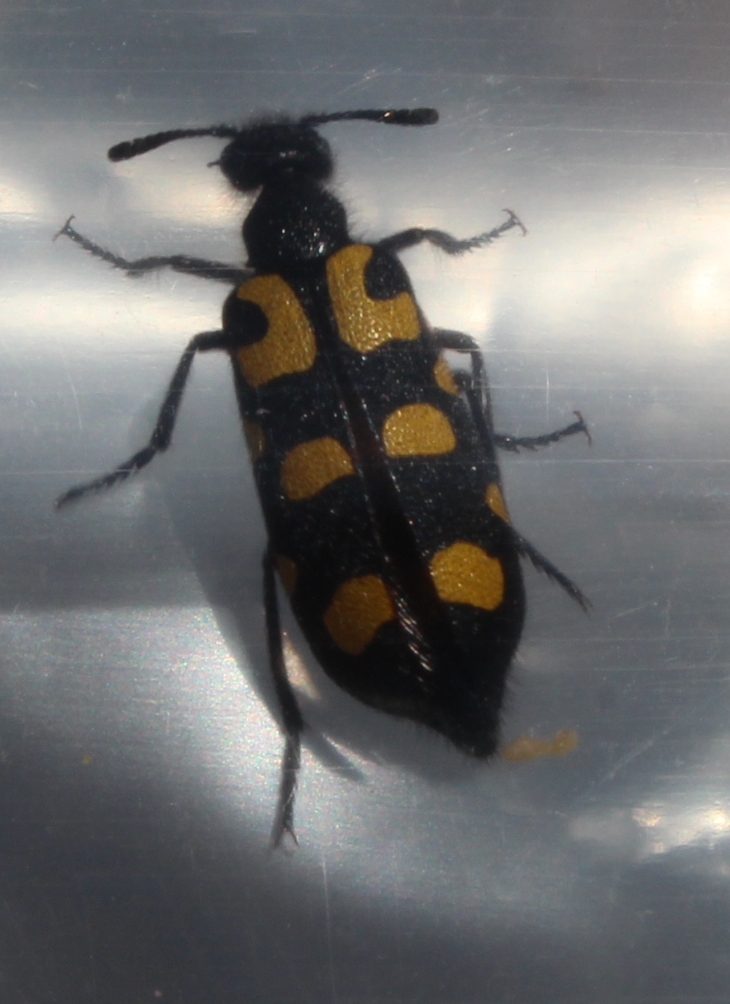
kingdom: Animalia
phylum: Arthropoda
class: Insecta
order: Coleoptera
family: Meloidae
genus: Ceroctis
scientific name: Ceroctis capensis
